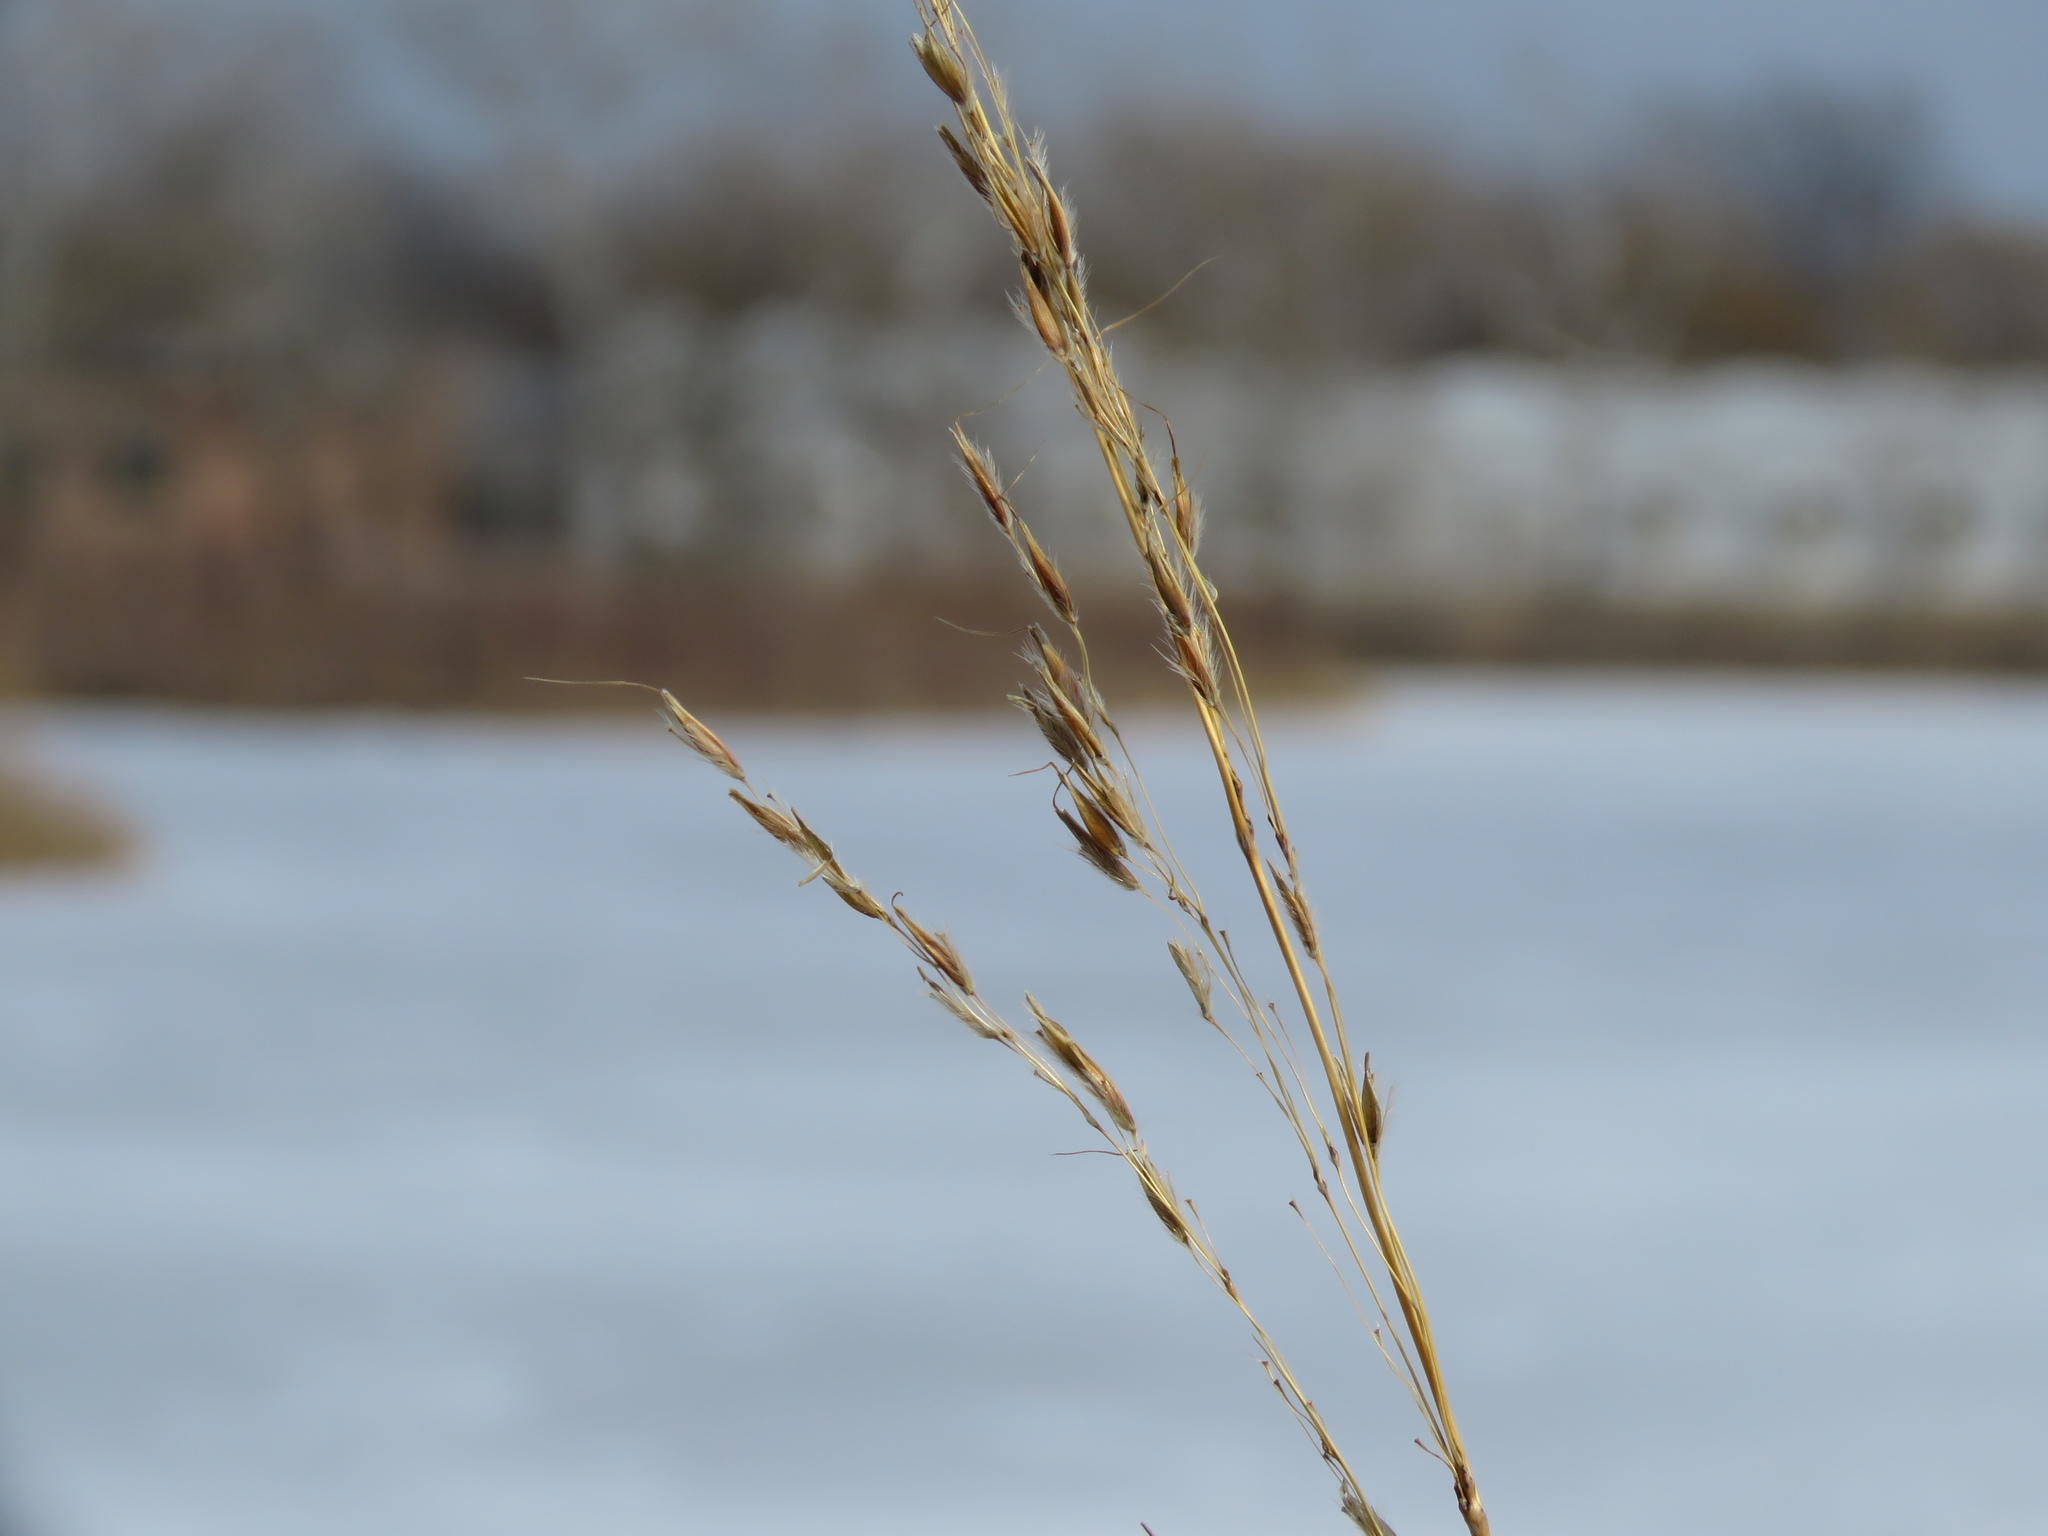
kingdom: Plantae
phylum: Tracheophyta
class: Liliopsida
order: Poales
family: Poaceae
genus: Sorghastrum
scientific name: Sorghastrum nutans
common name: Indian grass
